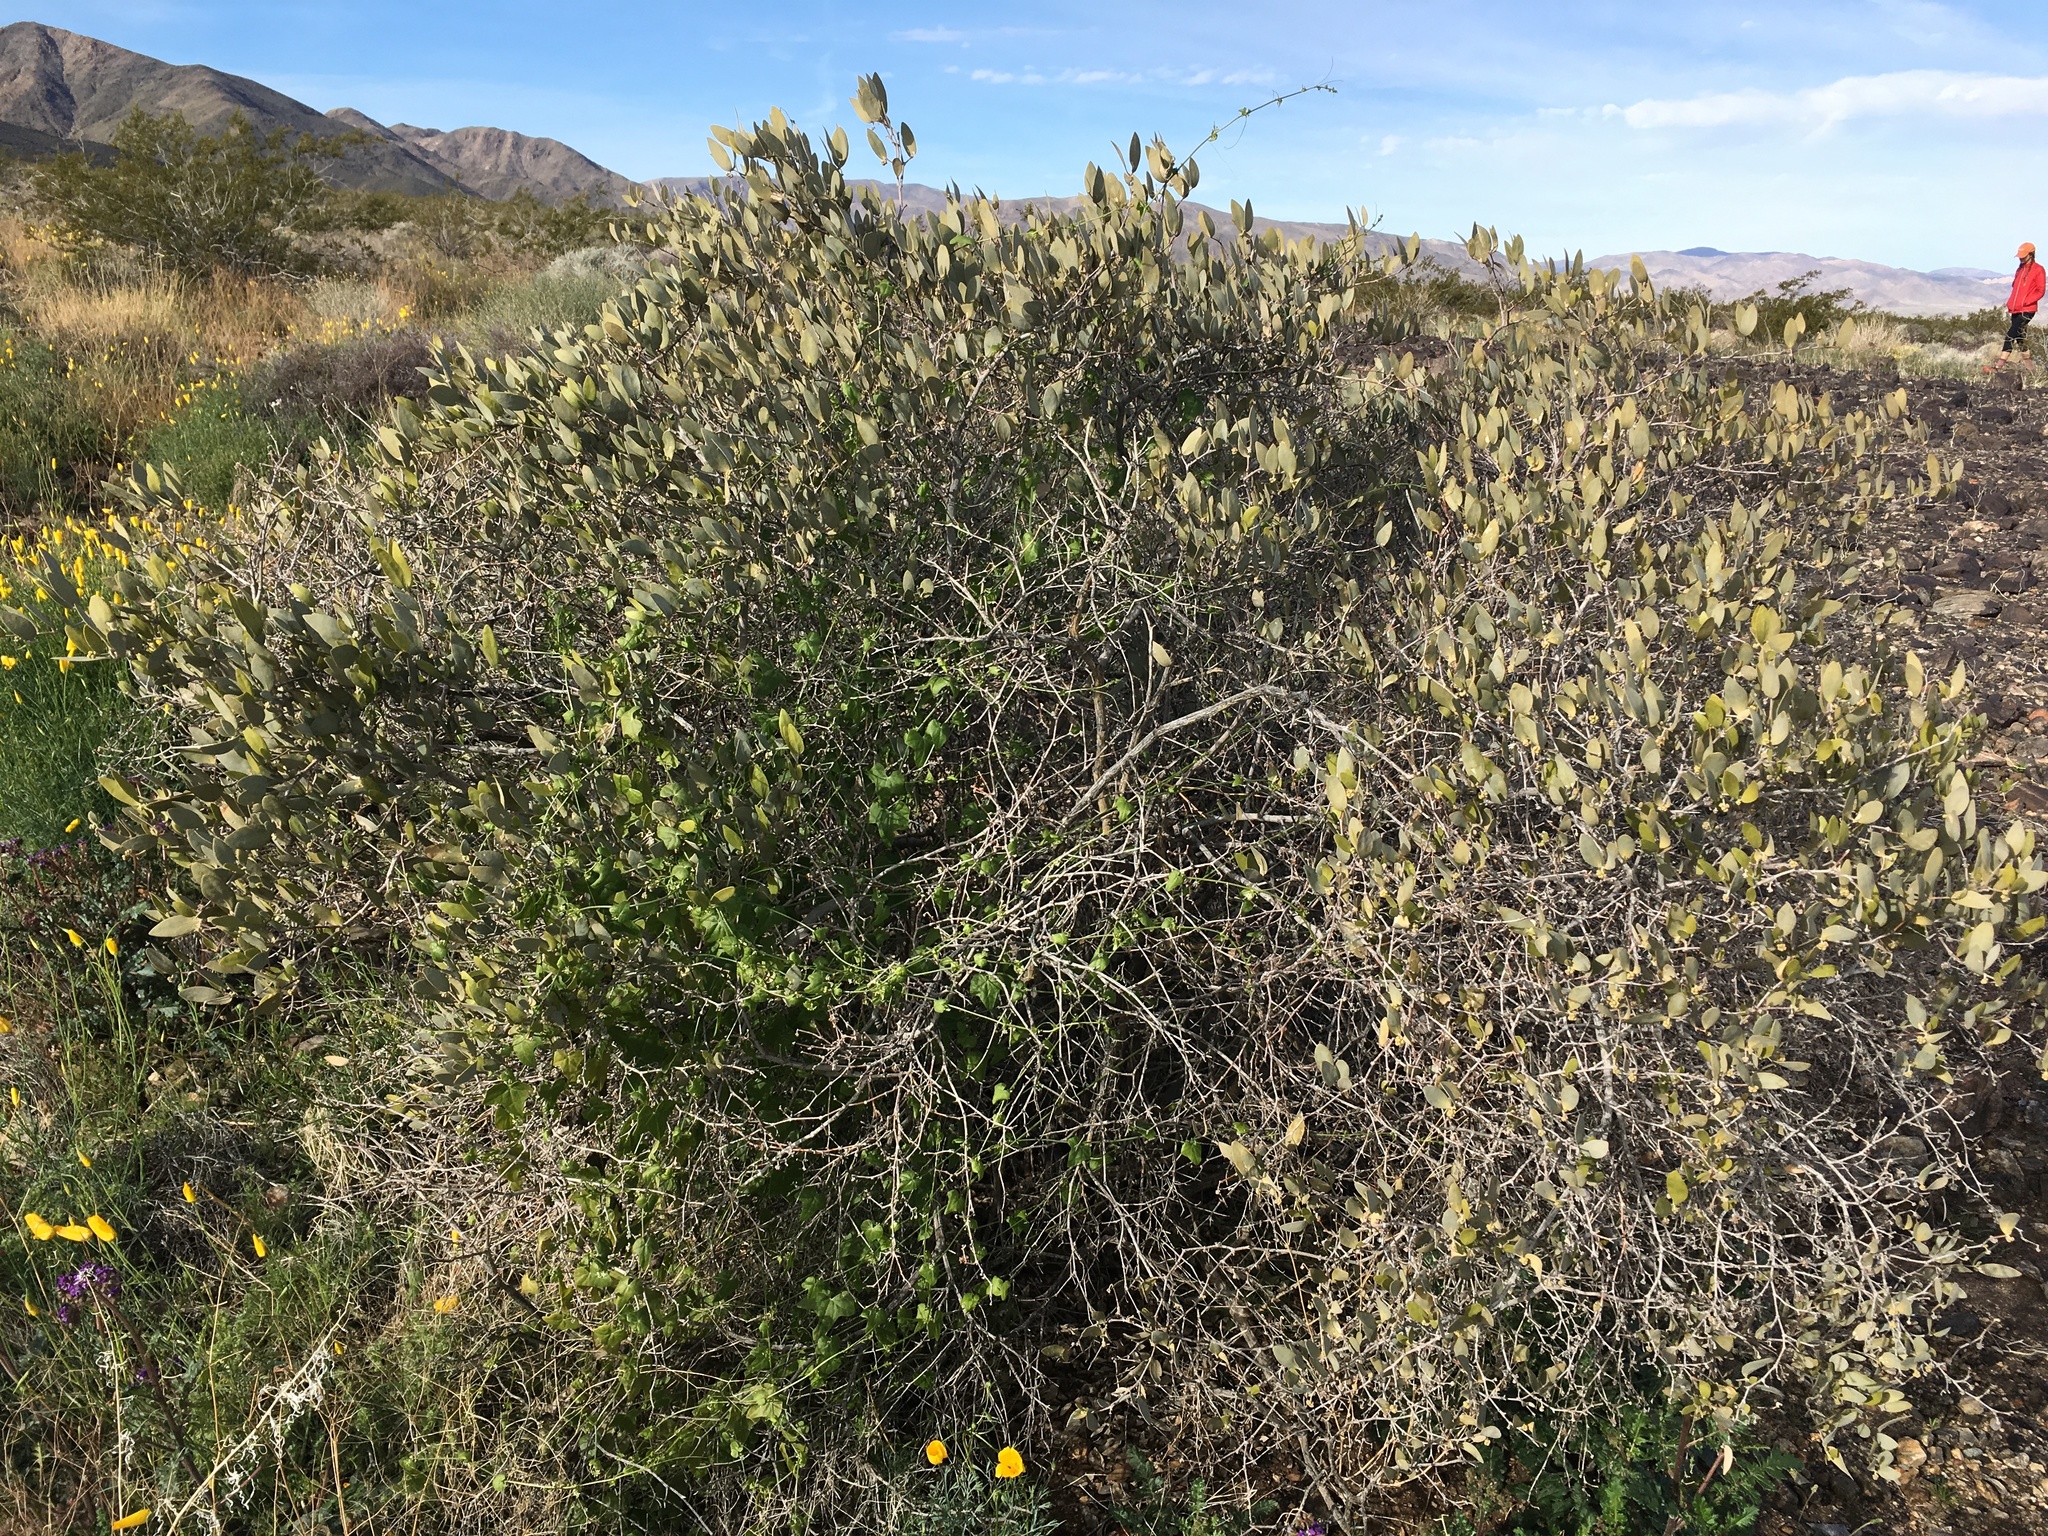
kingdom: Plantae
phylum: Tracheophyta
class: Magnoliopsida
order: Caryophyllales
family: Simmondsiaceae
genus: Simmondsia
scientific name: Simmondsia chinensis
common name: Jojoba
